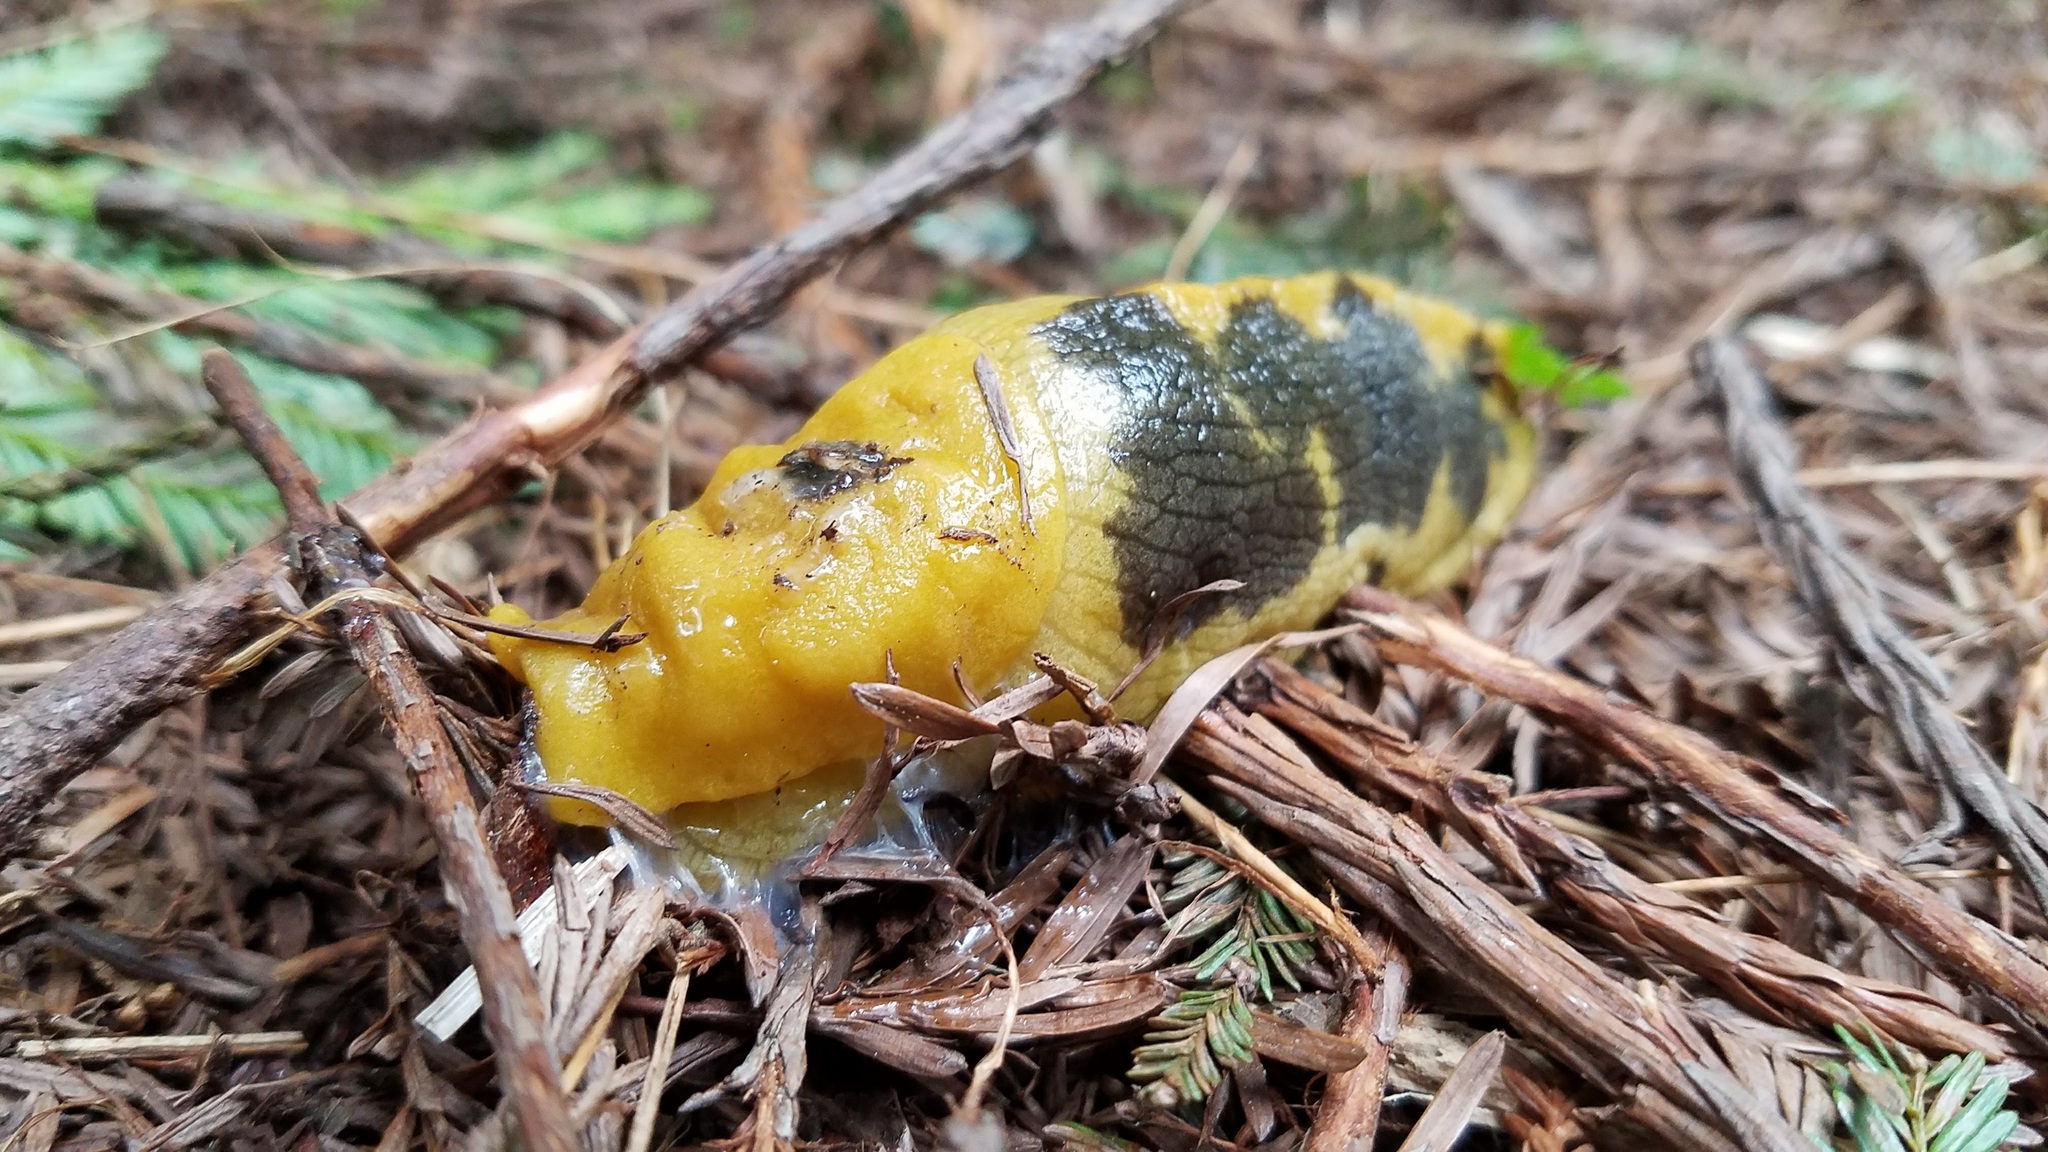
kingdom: Animalia
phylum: Mollusca
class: Gastropoda
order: Stylommatophora
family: Ariolimacidae
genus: Ariolimax
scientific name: Ariolimax columbianus
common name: Pacific banana slug
